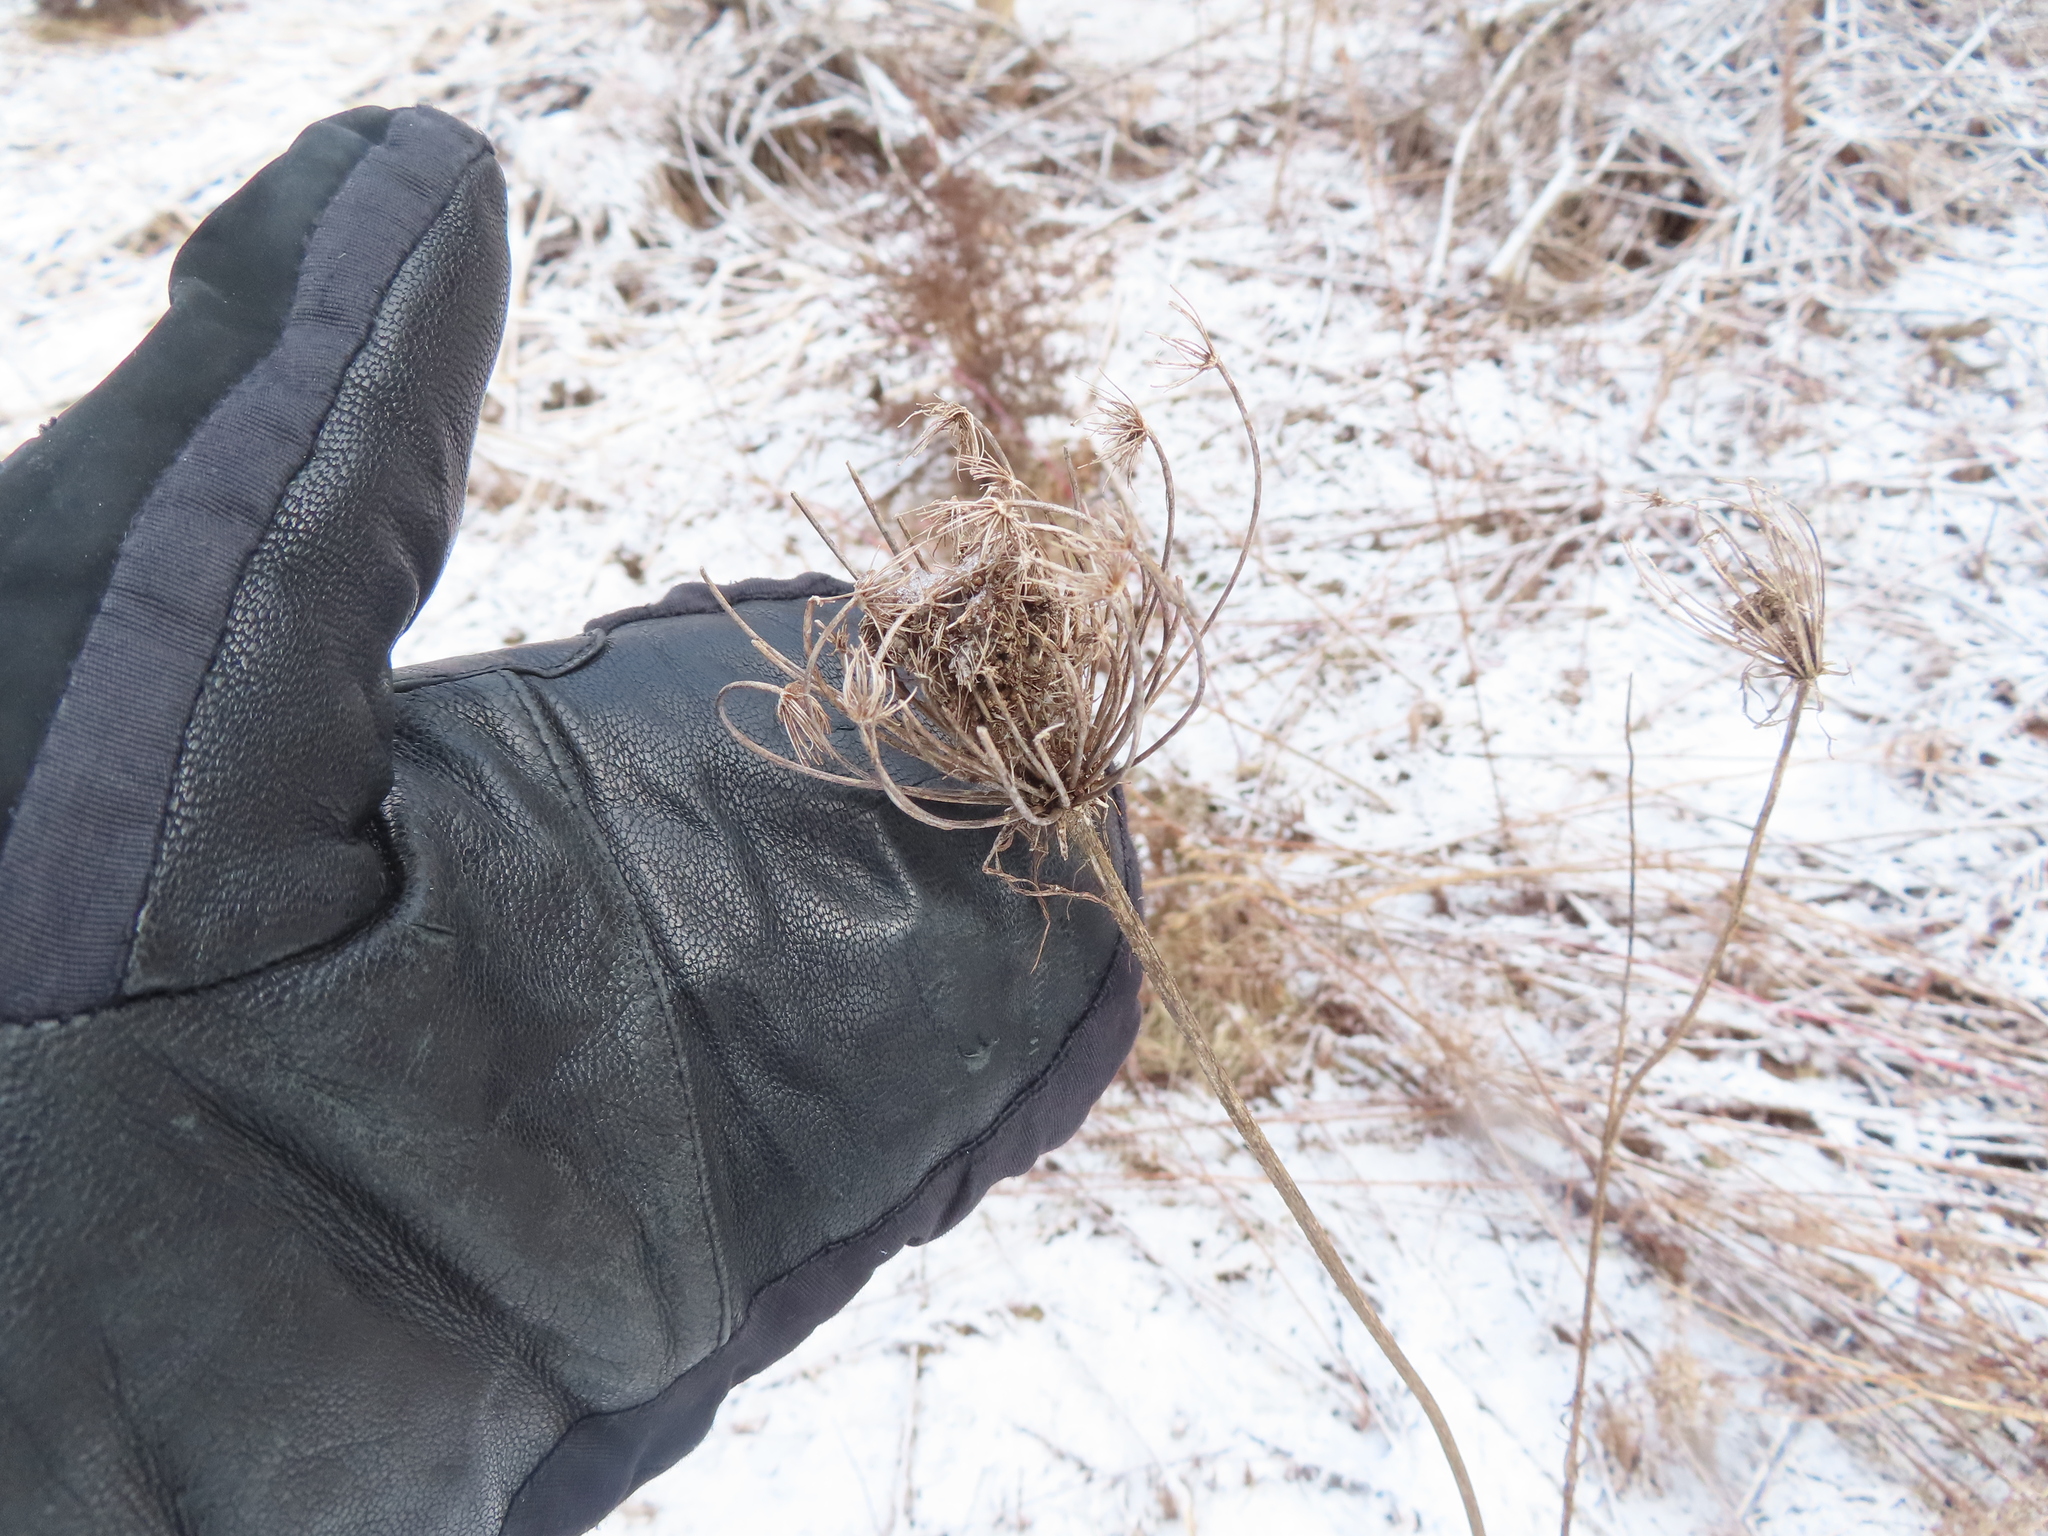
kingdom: Plantae
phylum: Tracheophyta
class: Magnoliopsida
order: Apiales
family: Apiaceae
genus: Daucus
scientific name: Daucus carota
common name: Wild carrot
